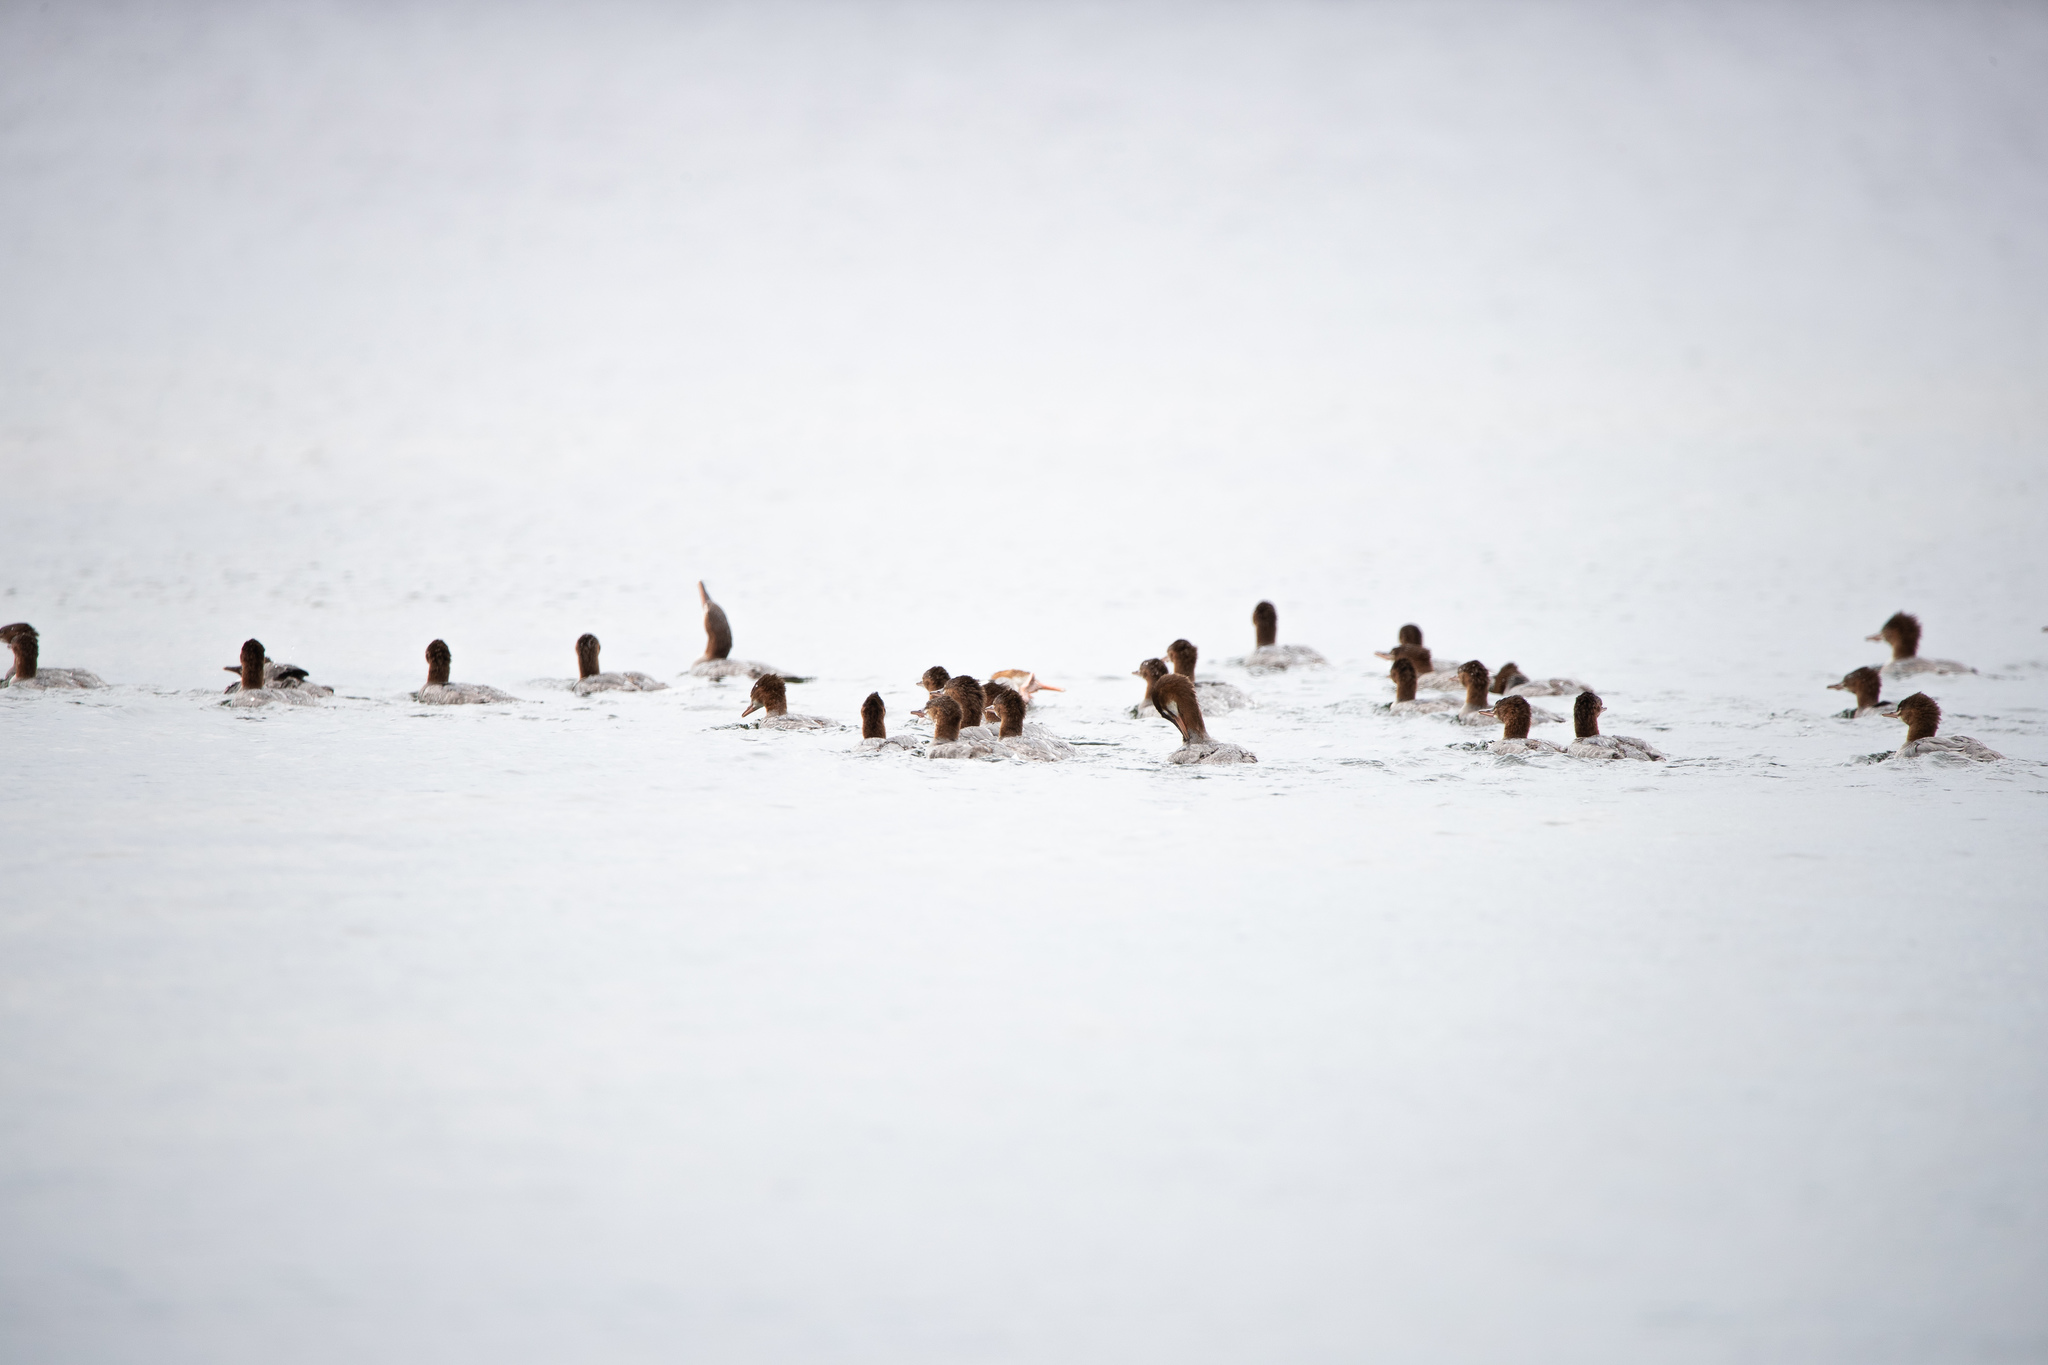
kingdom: Animalia
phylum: Chordata
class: Aves
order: Anseriformes
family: Anatidae
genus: Mergus
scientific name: Mergus merganser
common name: Common merganser
